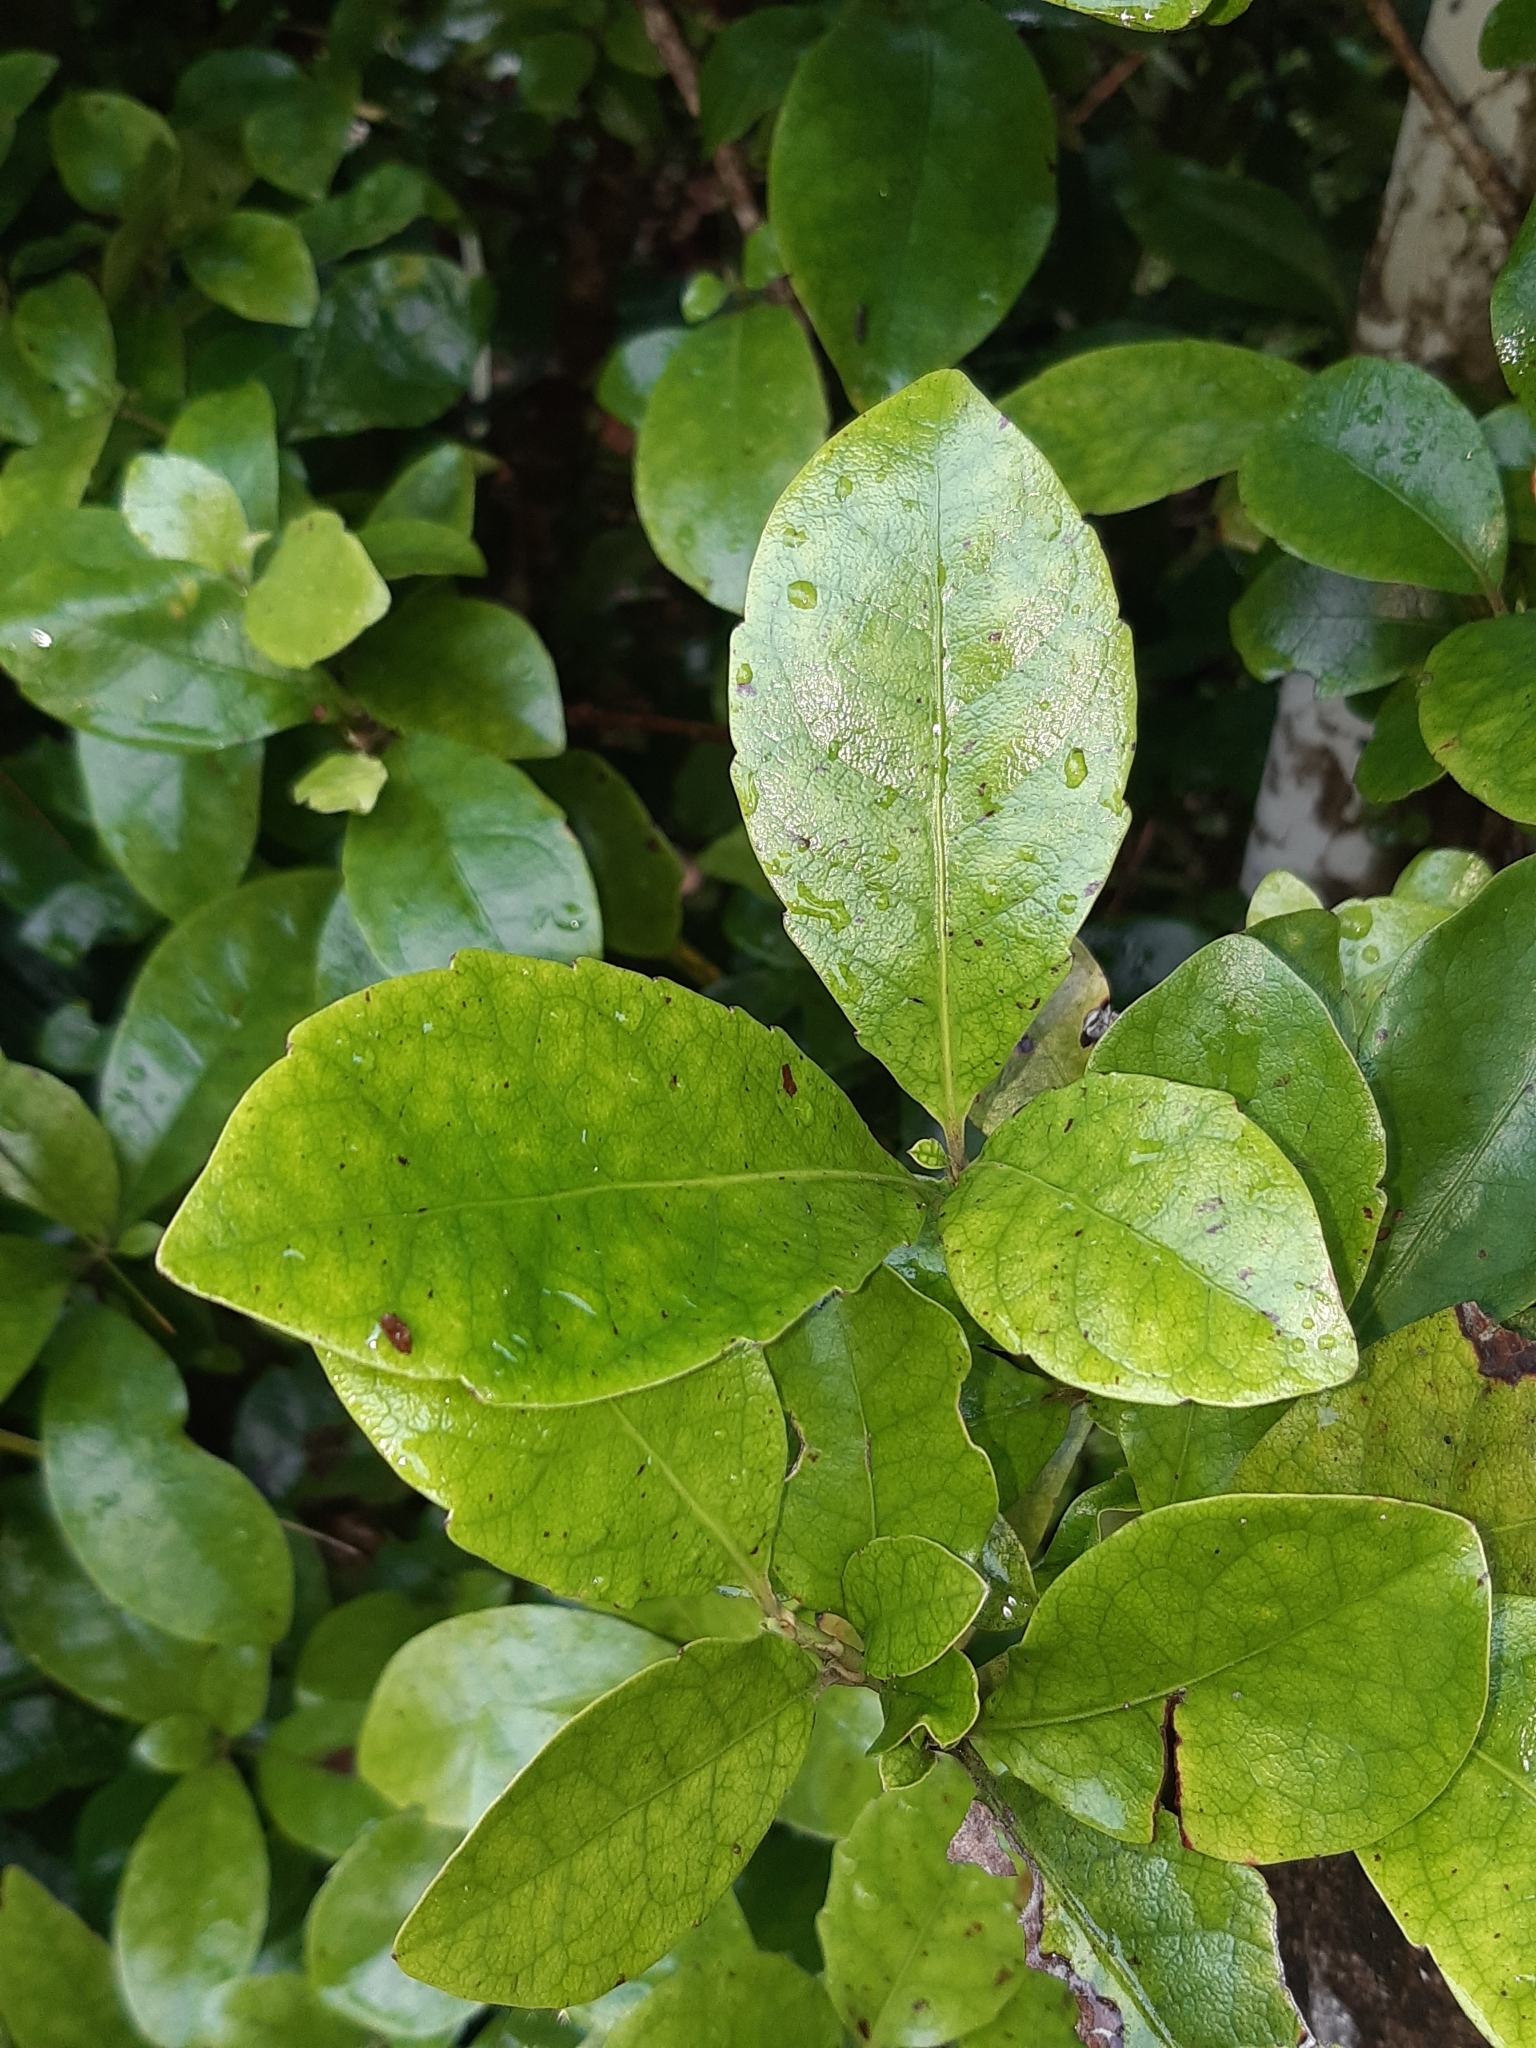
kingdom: Plantae
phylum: Tracheophyta
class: Magnoliopsida
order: Asterales
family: Alseuosmiaceae
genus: Alseuosmia
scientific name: Alseuosmia macrophylla
